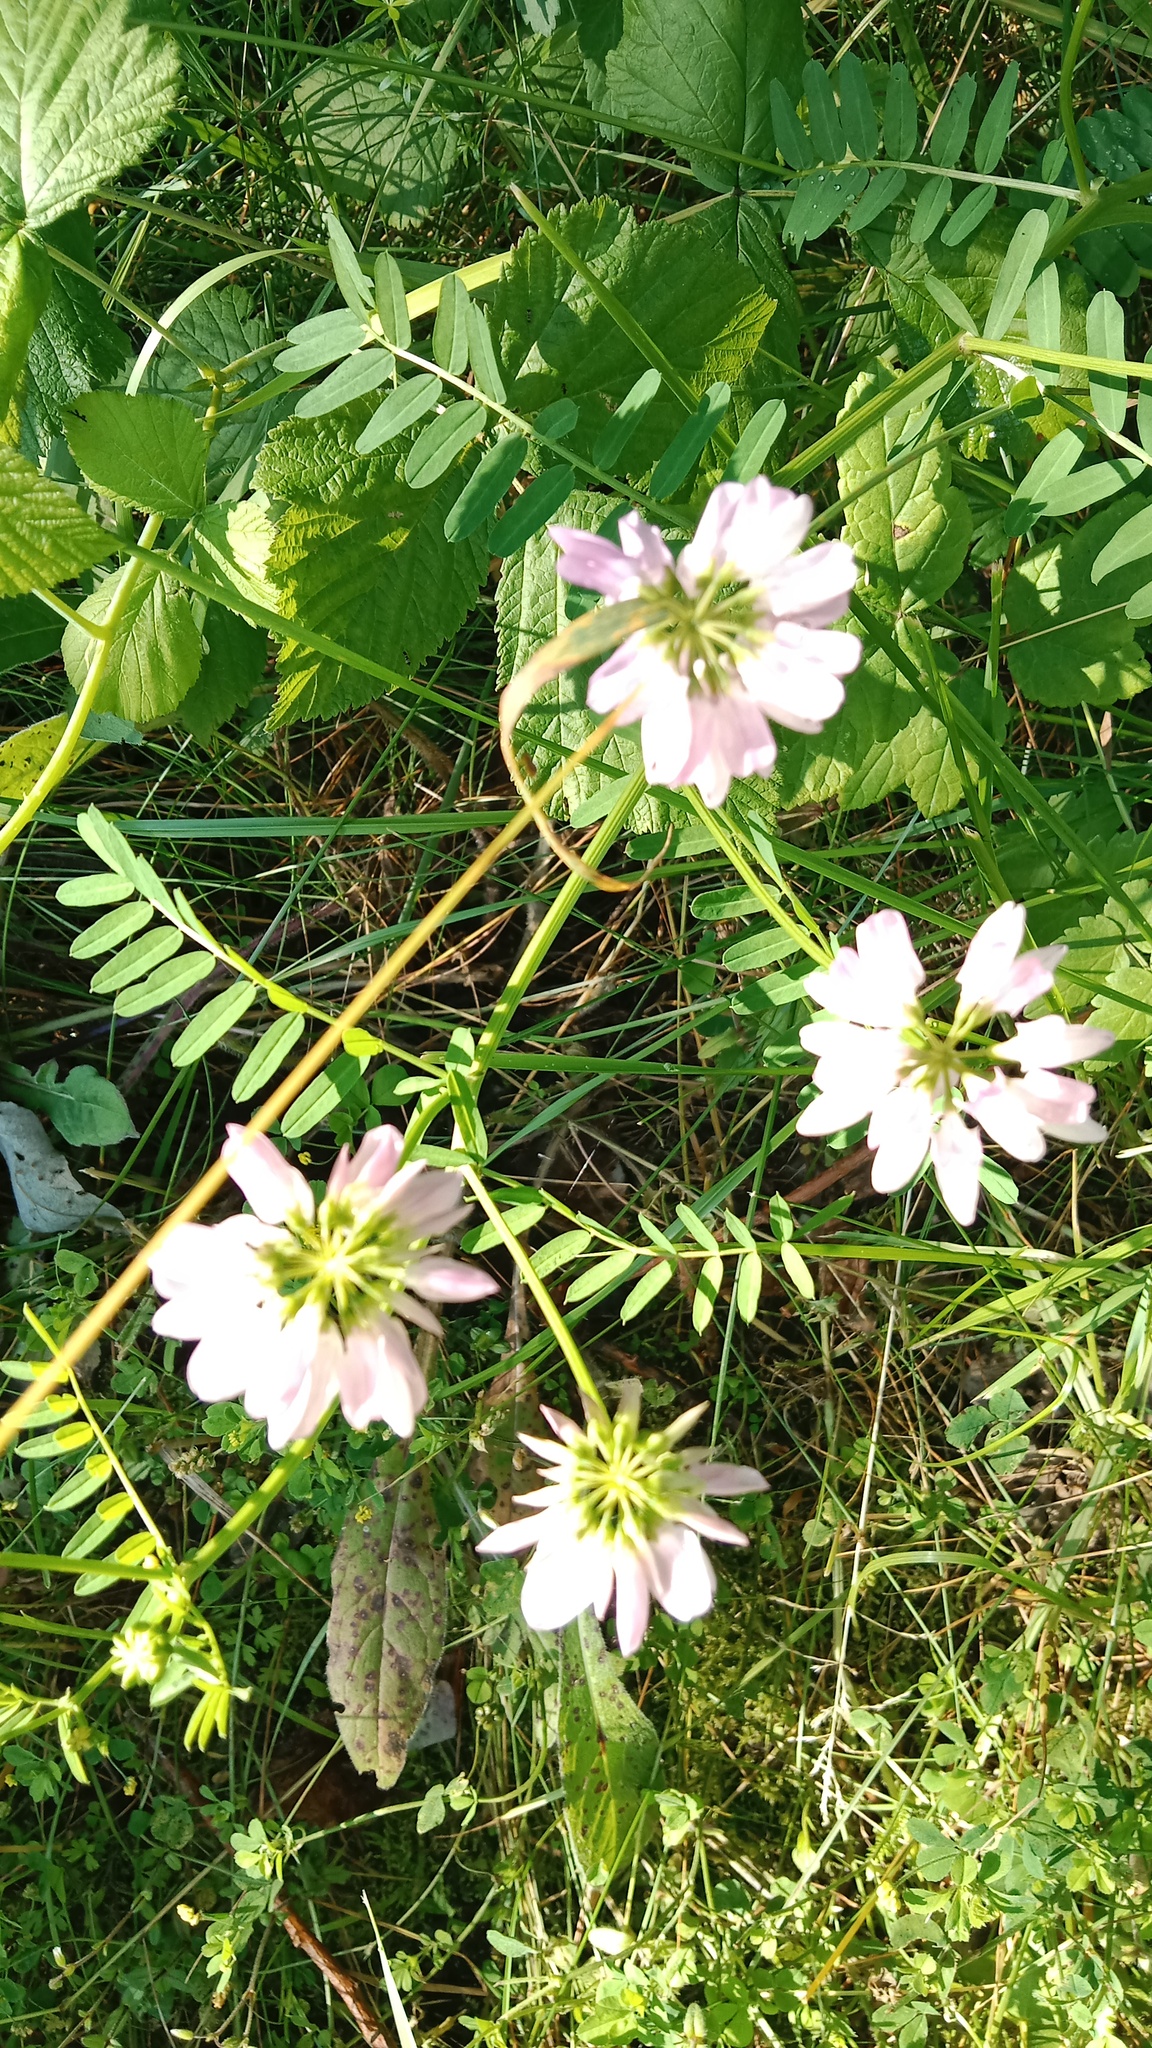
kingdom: Plantae
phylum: Tracheophyta
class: Magnoliopsida
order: Fabales
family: Fabaceae
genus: Coronilla
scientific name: Coronilla varia
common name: Crownvetch
